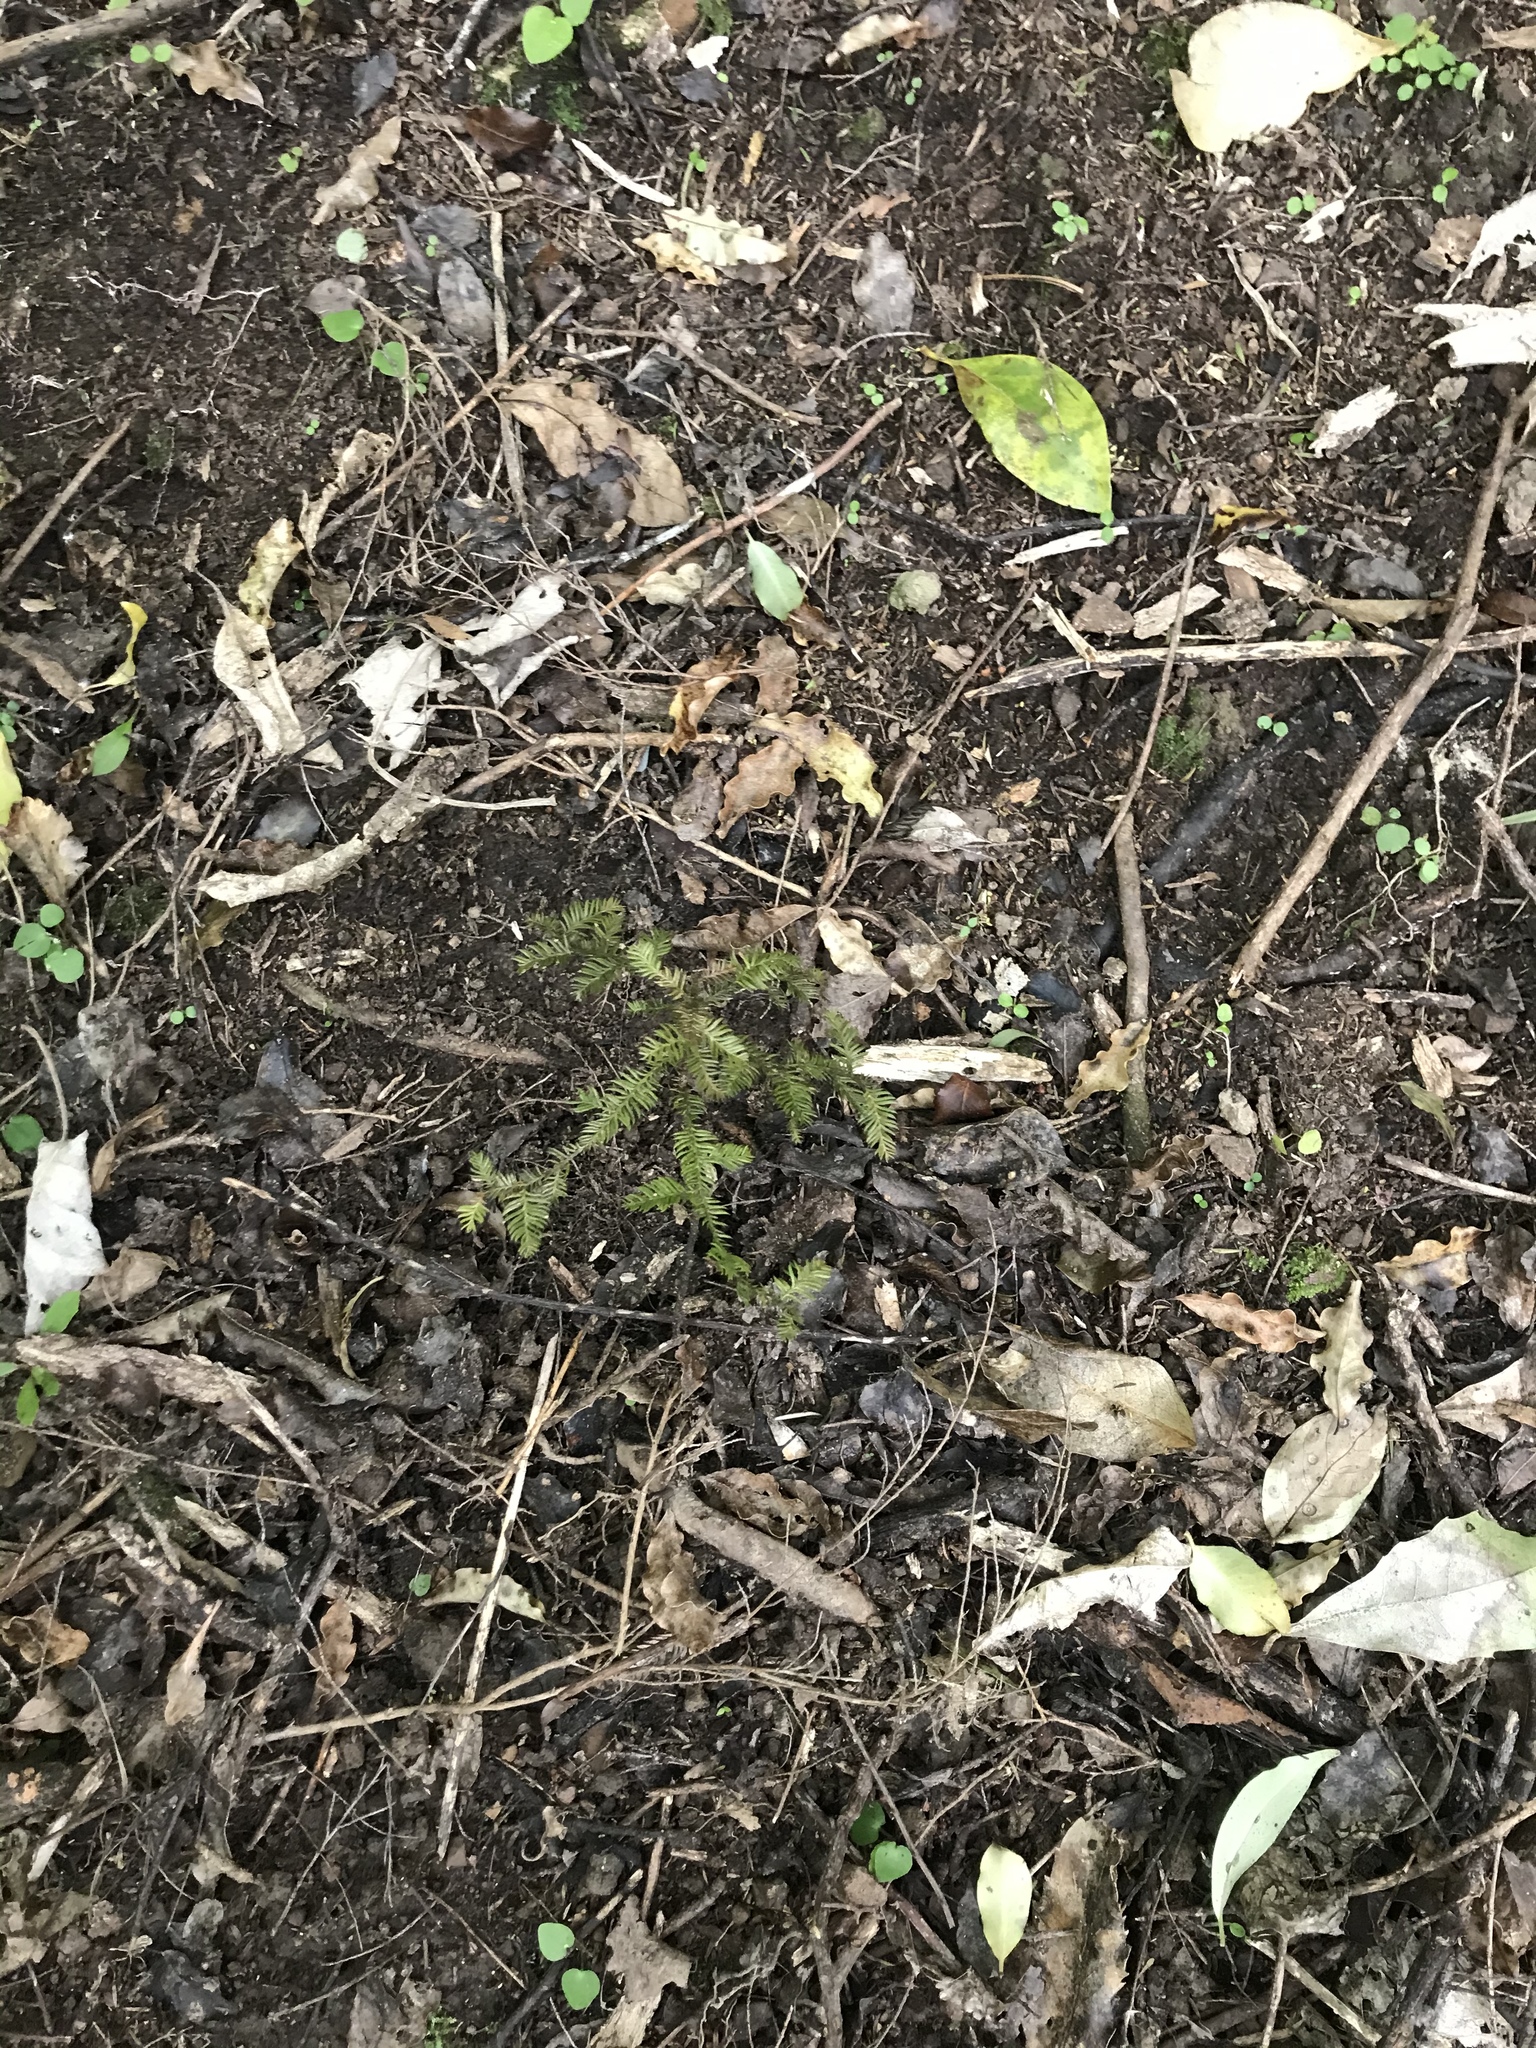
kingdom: Plantae
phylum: Tracheophyta
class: Pinopsida
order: Pinales
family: Podocarpaceae
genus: Dacrycarpus
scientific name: Dacrycarpus dacrydioides
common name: White pine
